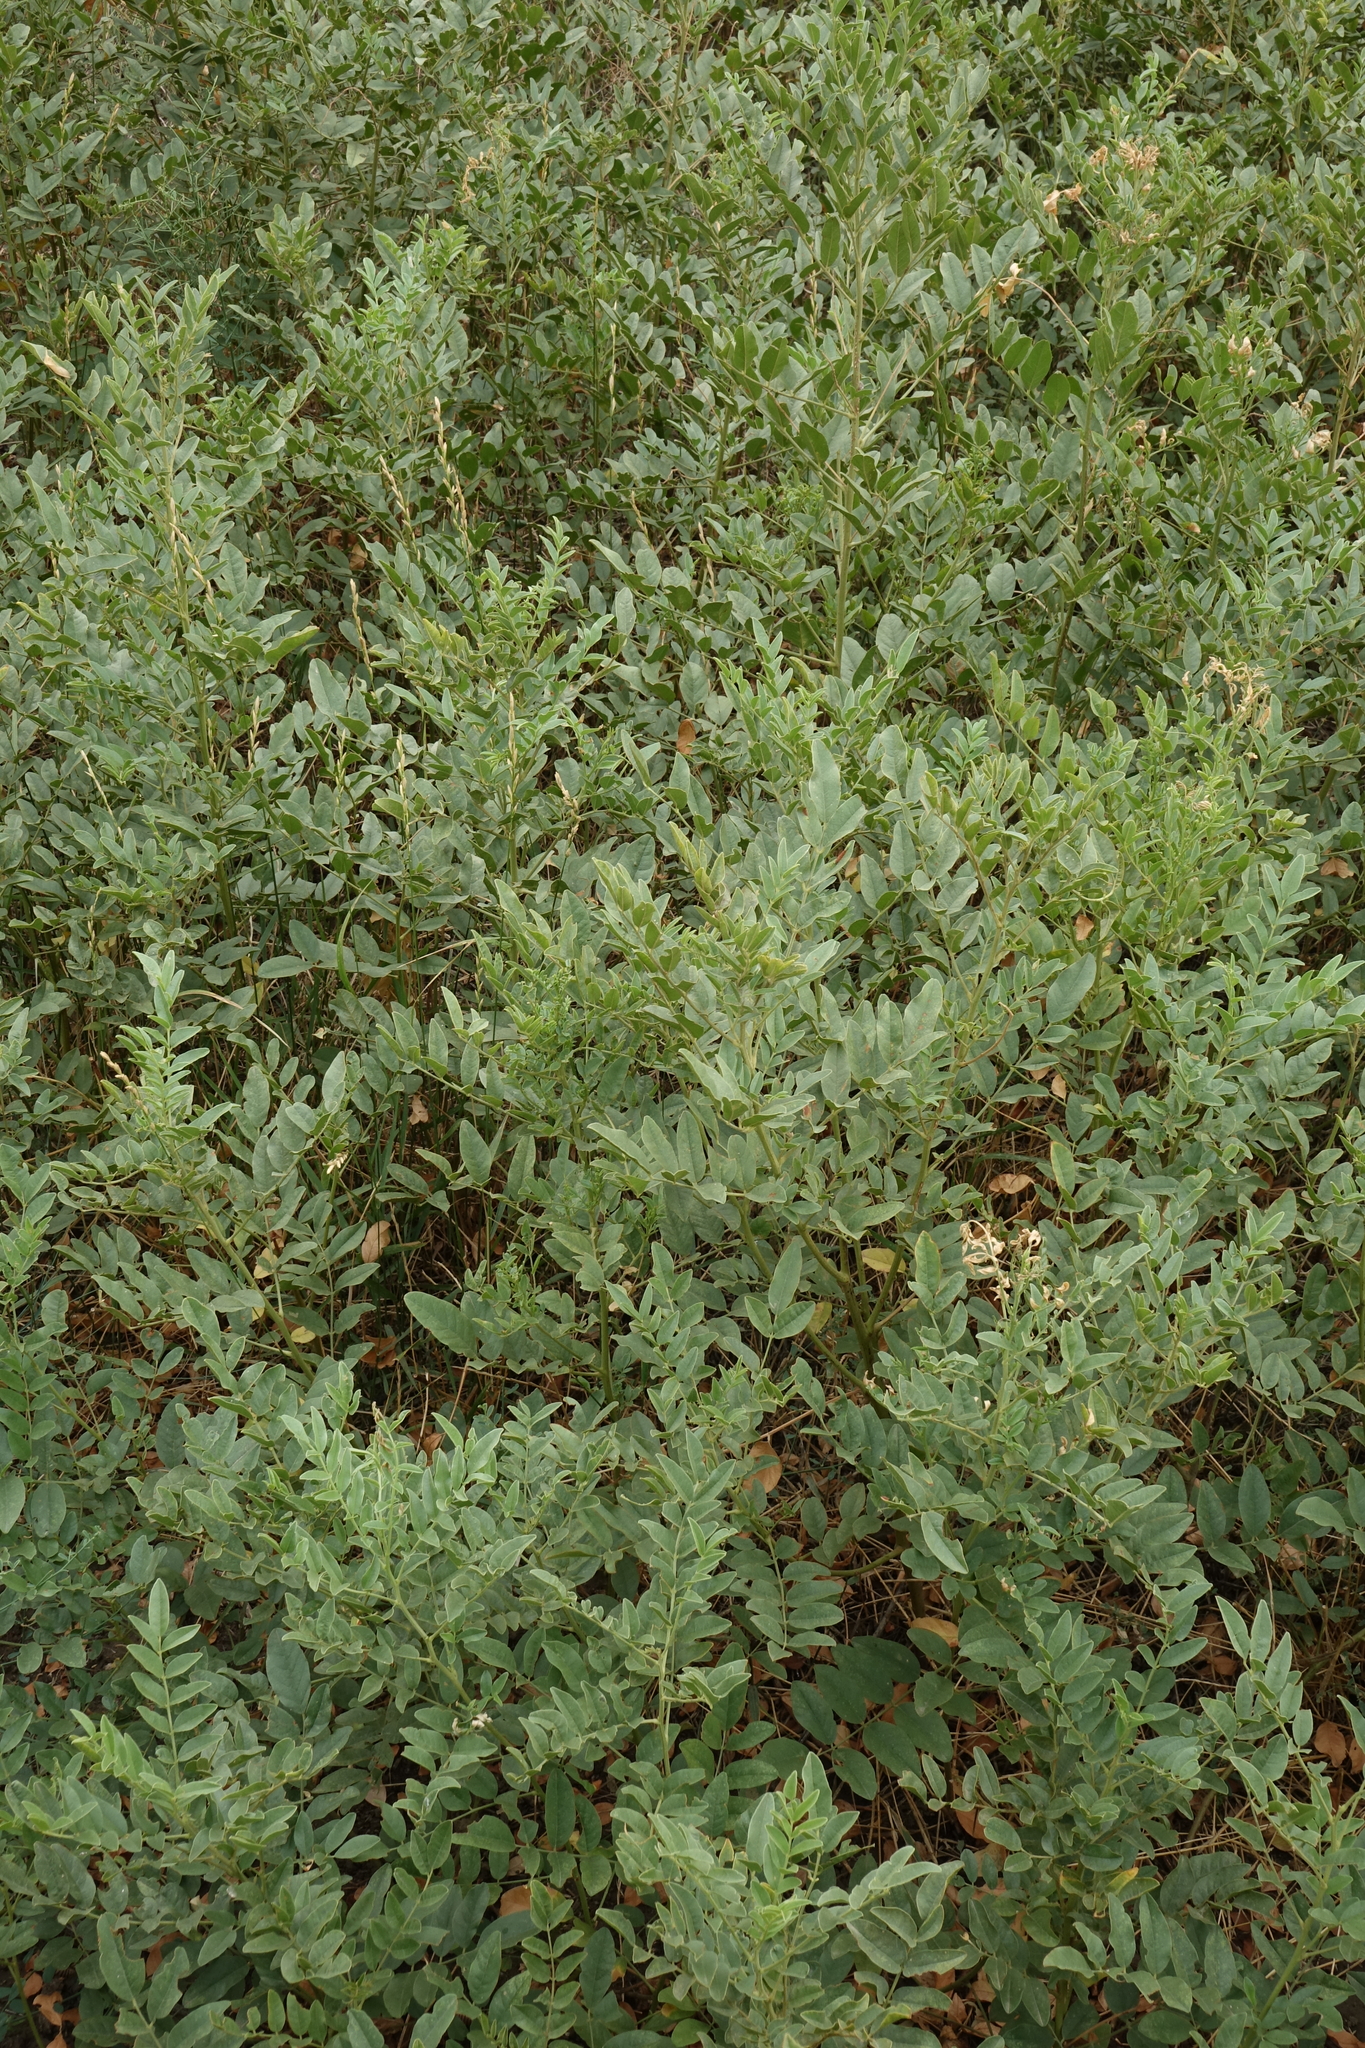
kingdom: Plantae
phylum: Tracheophyta
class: Magnoliopsida
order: Fabales
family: Fabaceae
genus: Glycyrrhiza
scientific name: Glycyrrhiza glabra
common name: Liquorice
